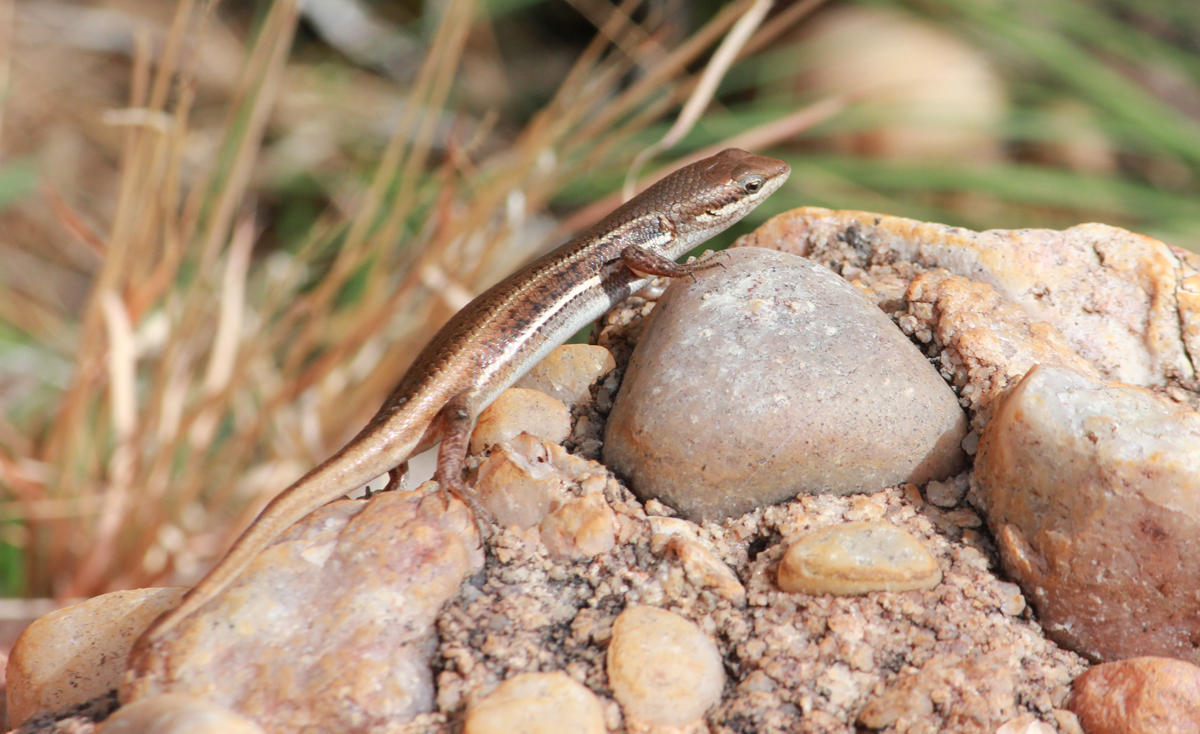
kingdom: Animalia
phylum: Chordata
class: Squamata
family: Scincidae
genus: Trachylepis
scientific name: Trachylepis varia
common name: Eastern variable skink
